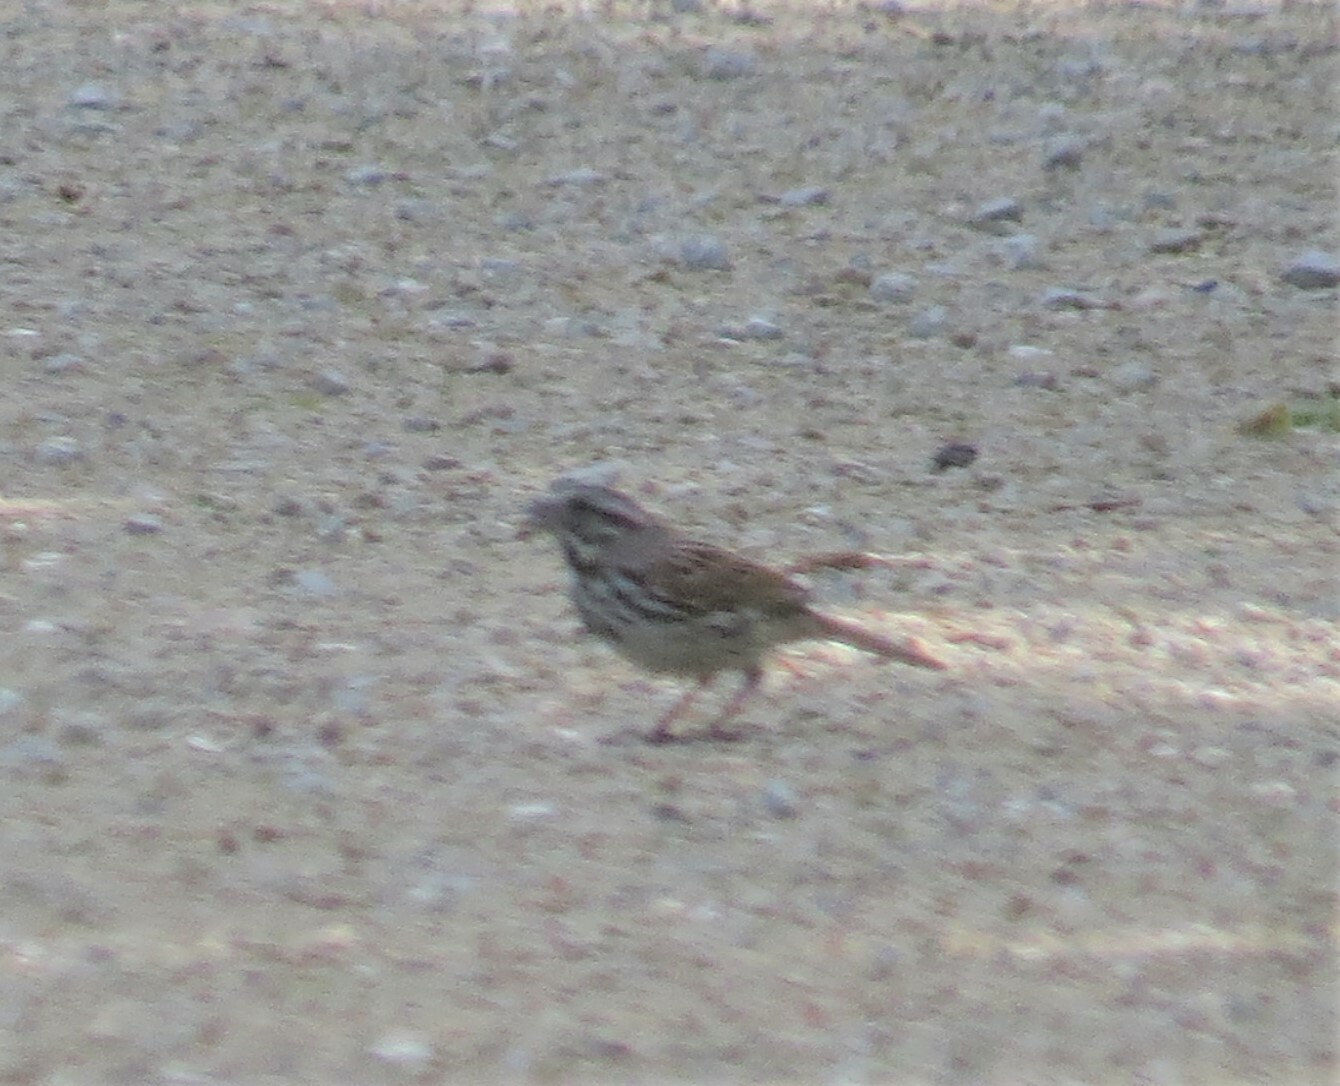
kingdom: Animalia
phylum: Chordata
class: Aves
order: Passeriformes
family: Passerellidae
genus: Melospiza
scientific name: Melospiza melodia
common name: Song sparrow
